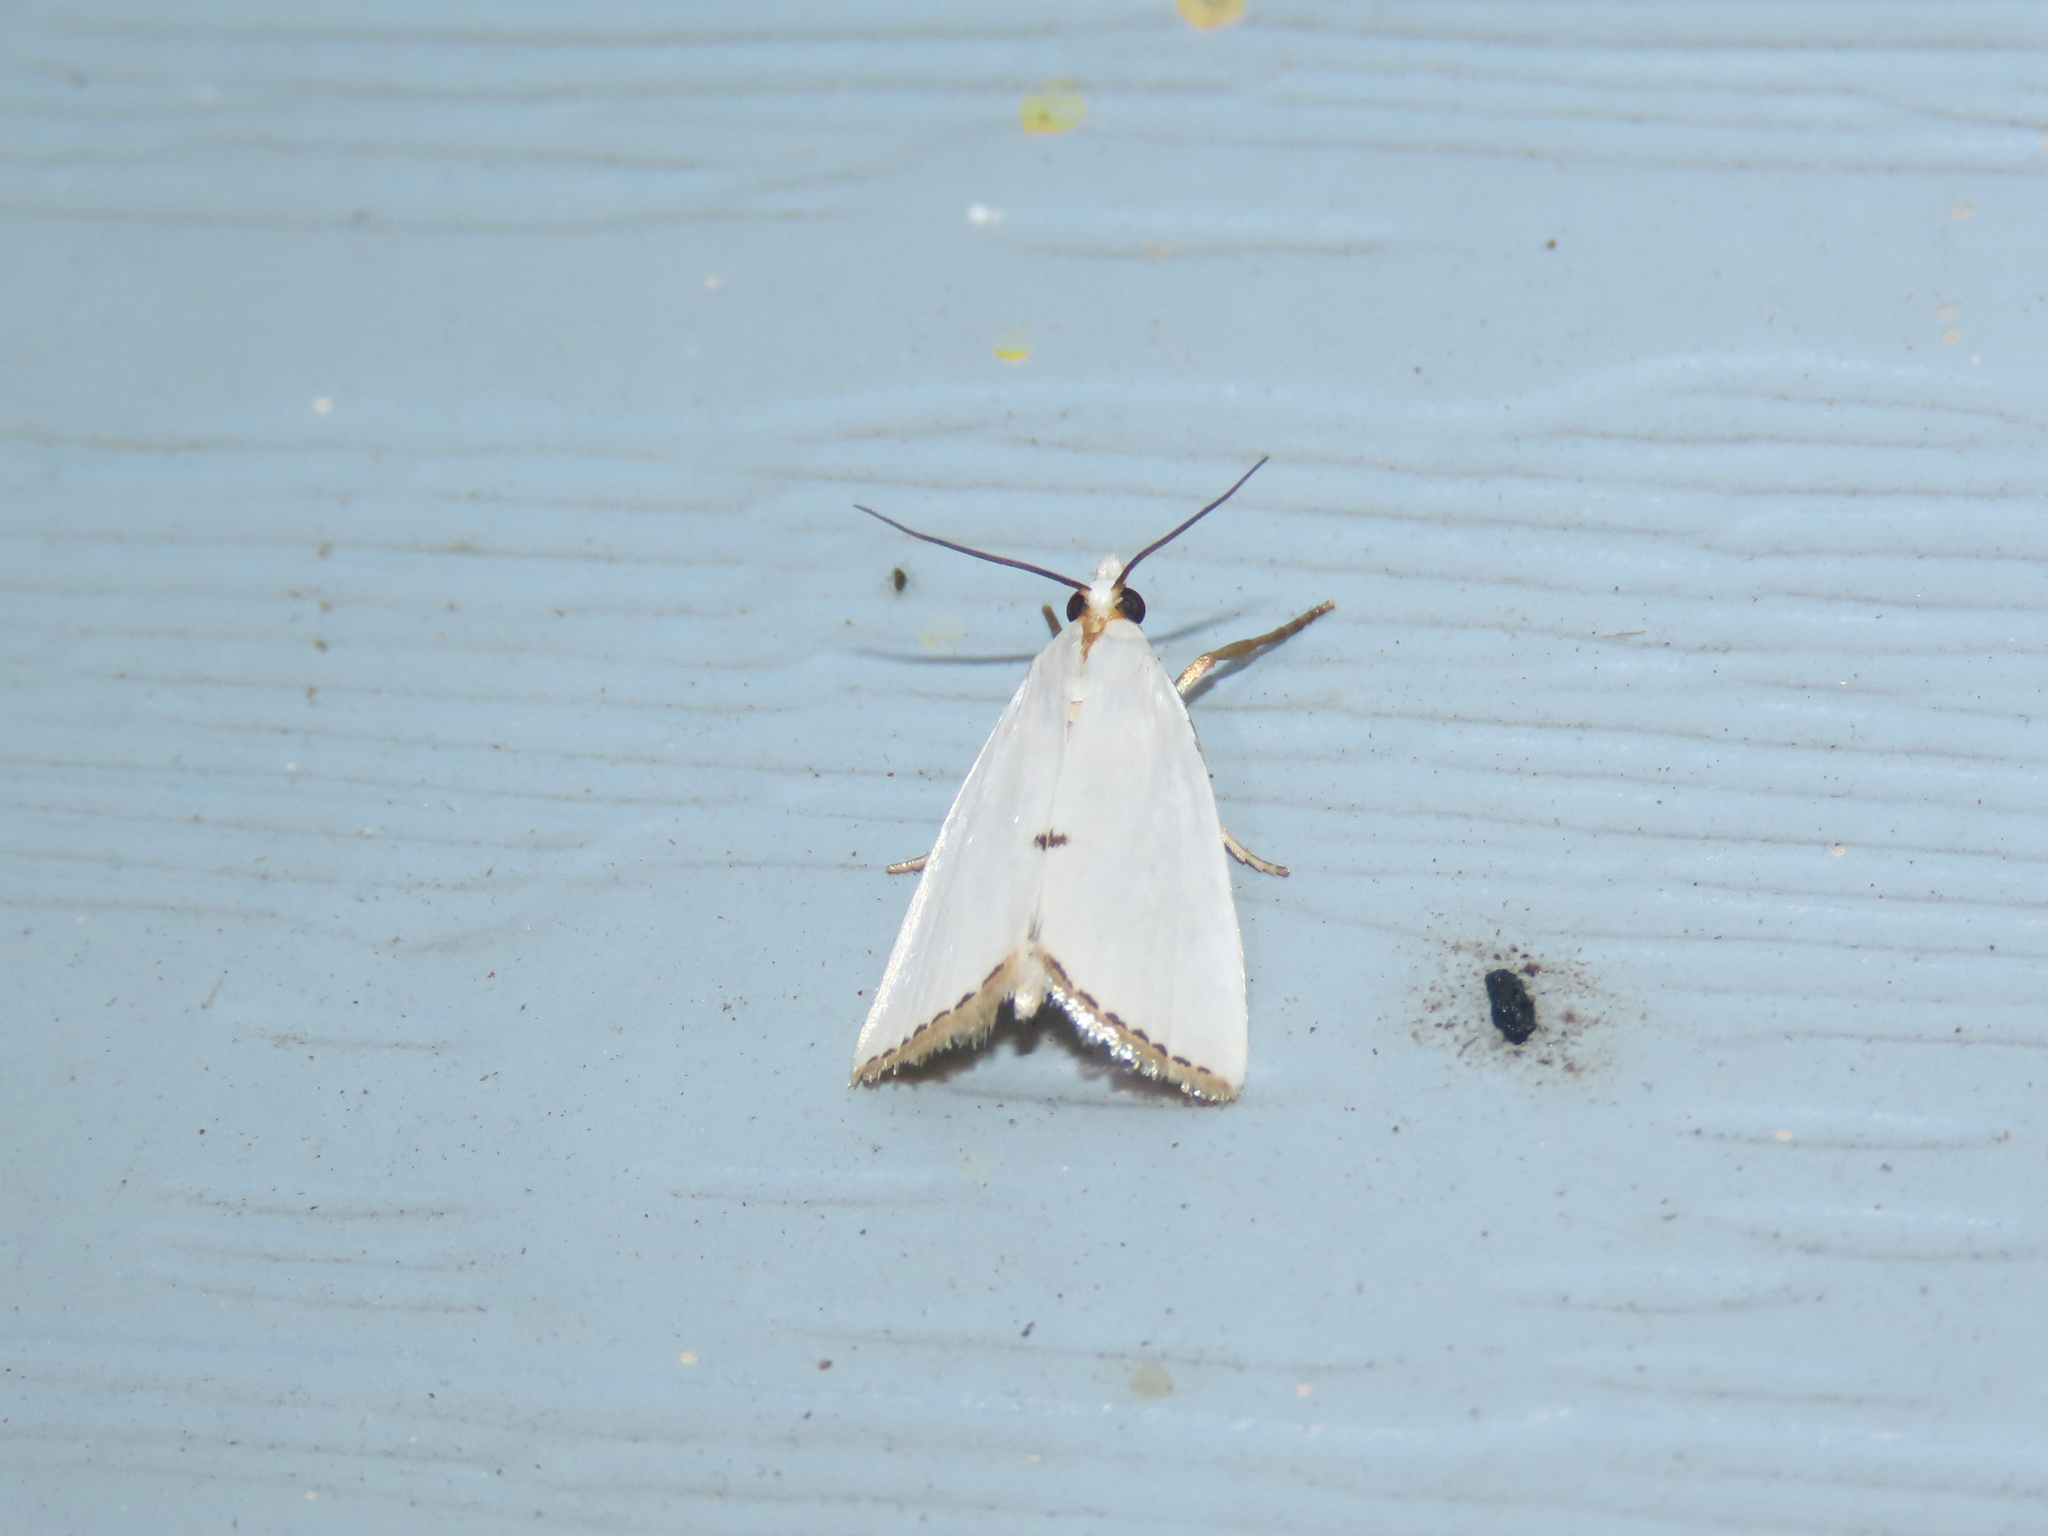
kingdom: Animalia
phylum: Arthropoda
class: Insecta
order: Lepidoptera
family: Crambidae
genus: Argyria
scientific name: Argyria nivalis
